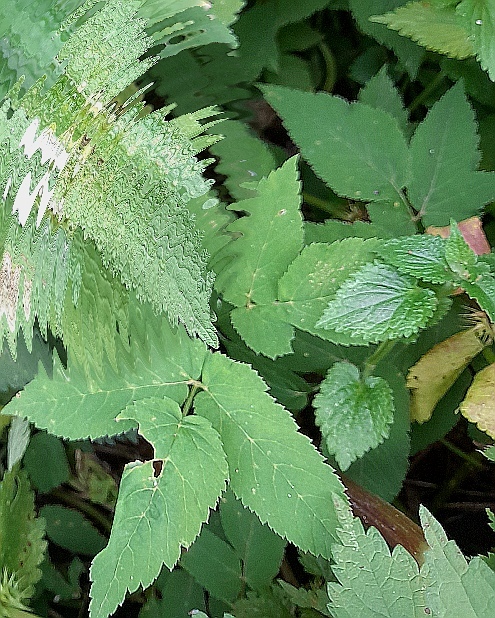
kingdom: Plantae
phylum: Tracheophyta
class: Magnoliopsida
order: Apiales
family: Apiaceae
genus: Aegopodium
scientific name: Aegopodium podagraria
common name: Ground-elder
